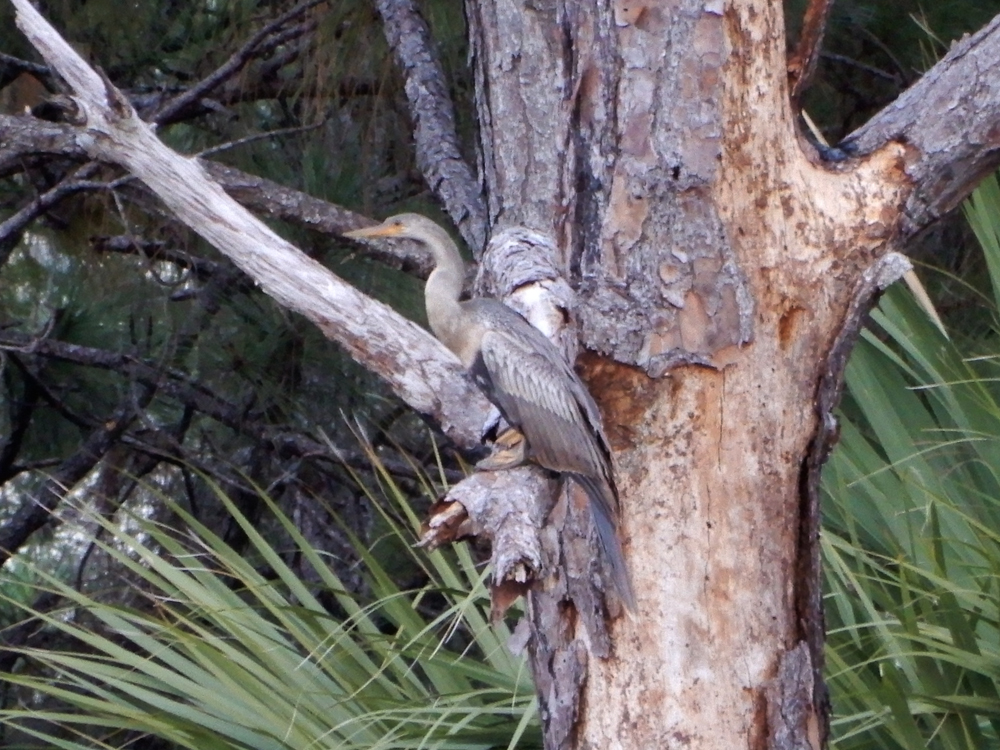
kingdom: Animalia
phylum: Chordata
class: Aves
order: Suliformes
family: Anhingidae
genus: Anhinga
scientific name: Anhinga anhinga
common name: Anhinga
